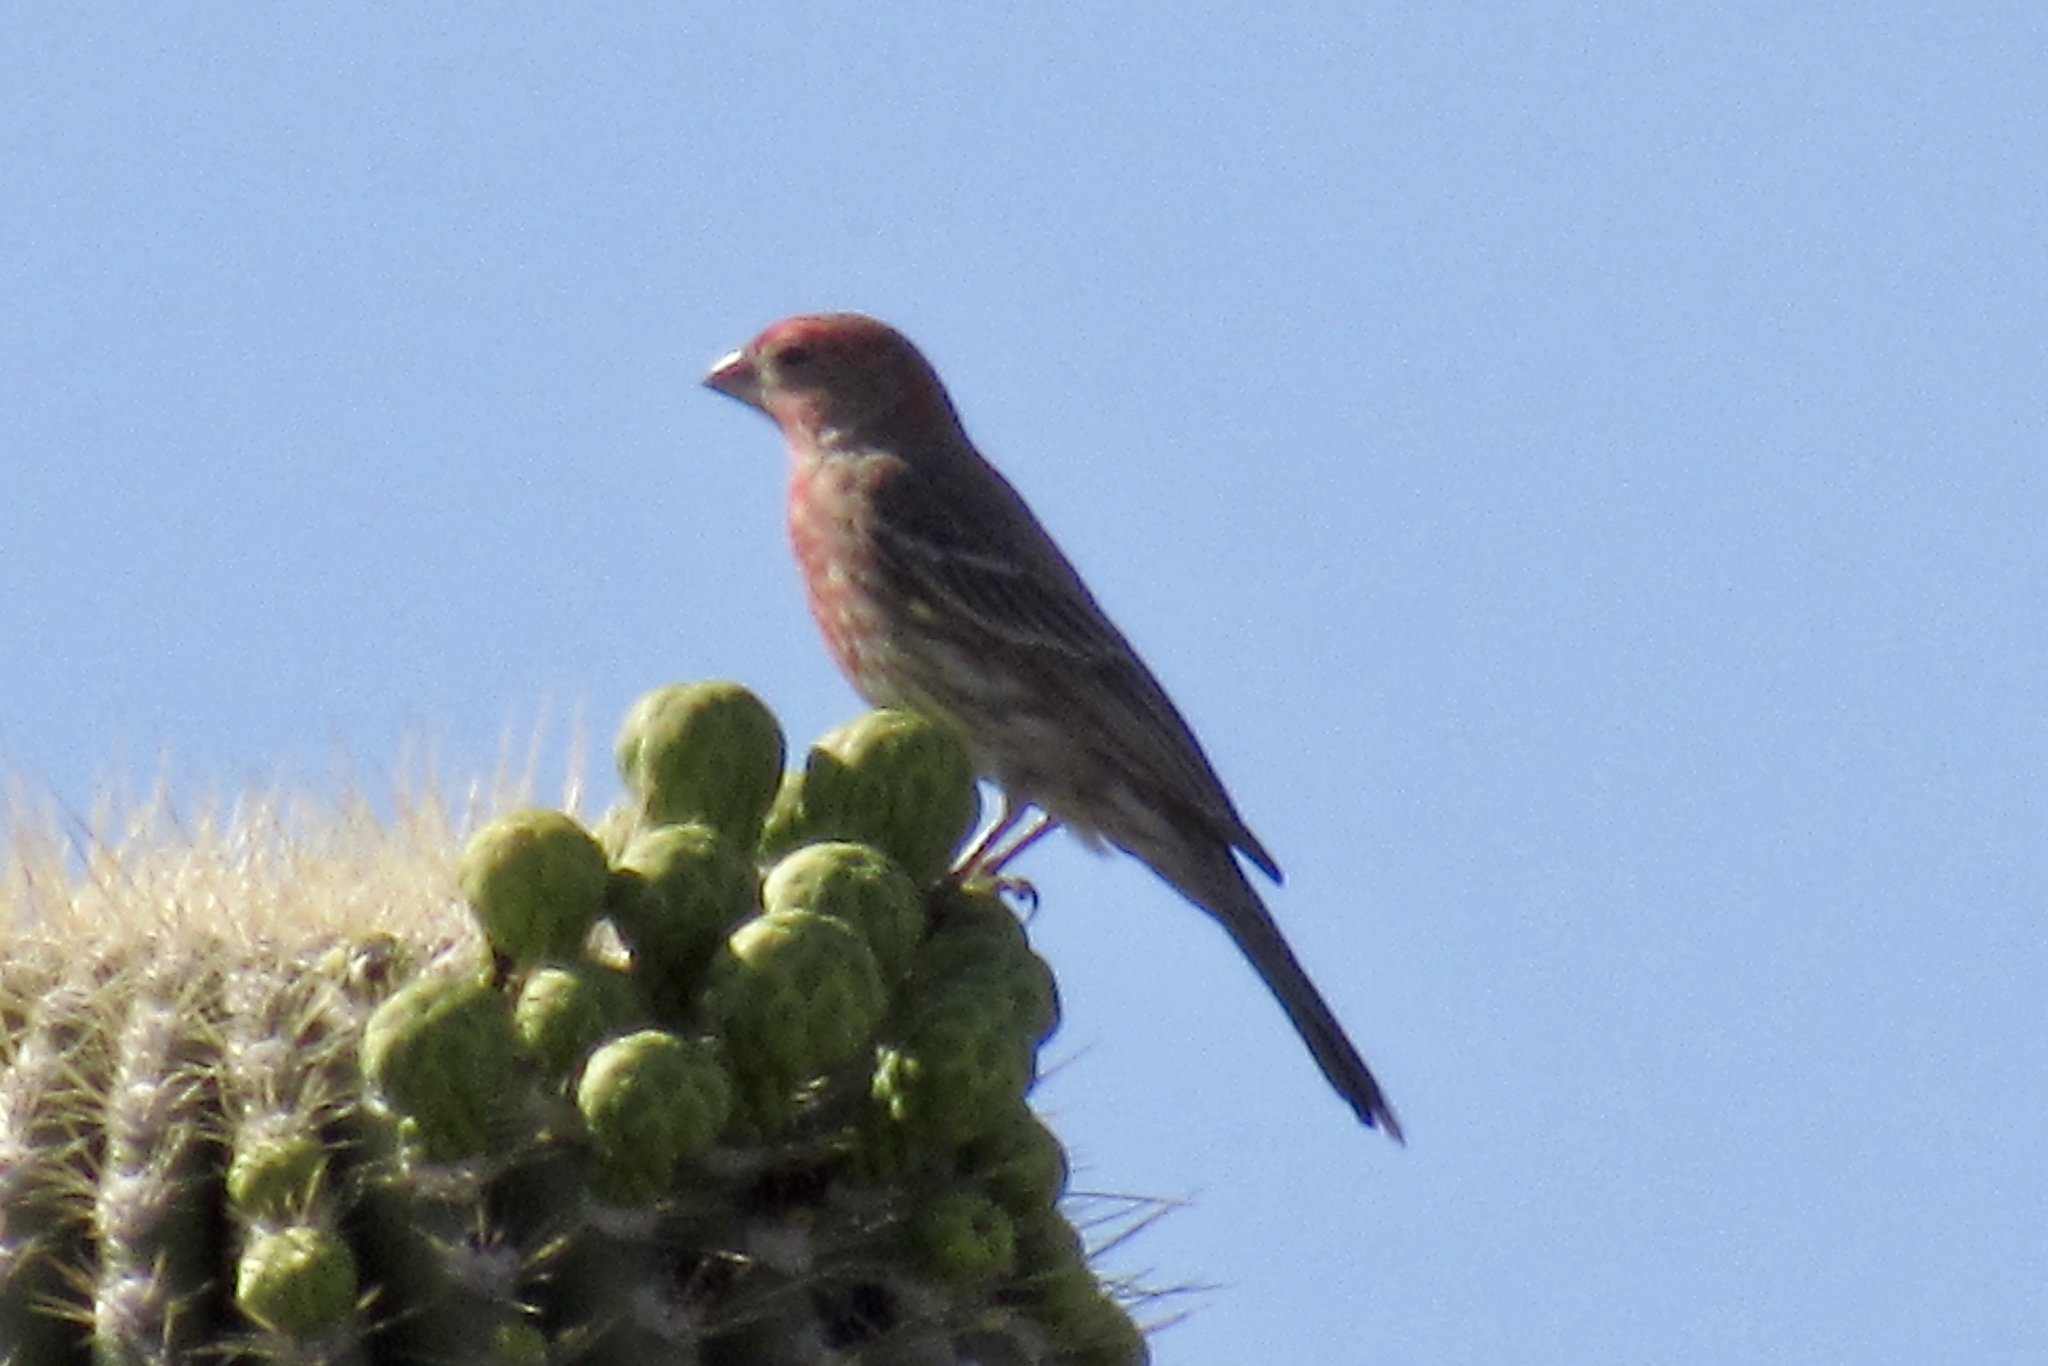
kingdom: Animalia
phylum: Chordata
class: Aves
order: Passeriformes
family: Fringillidae
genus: Haemorhous
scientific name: Haemorhous mexicanus
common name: House finch
